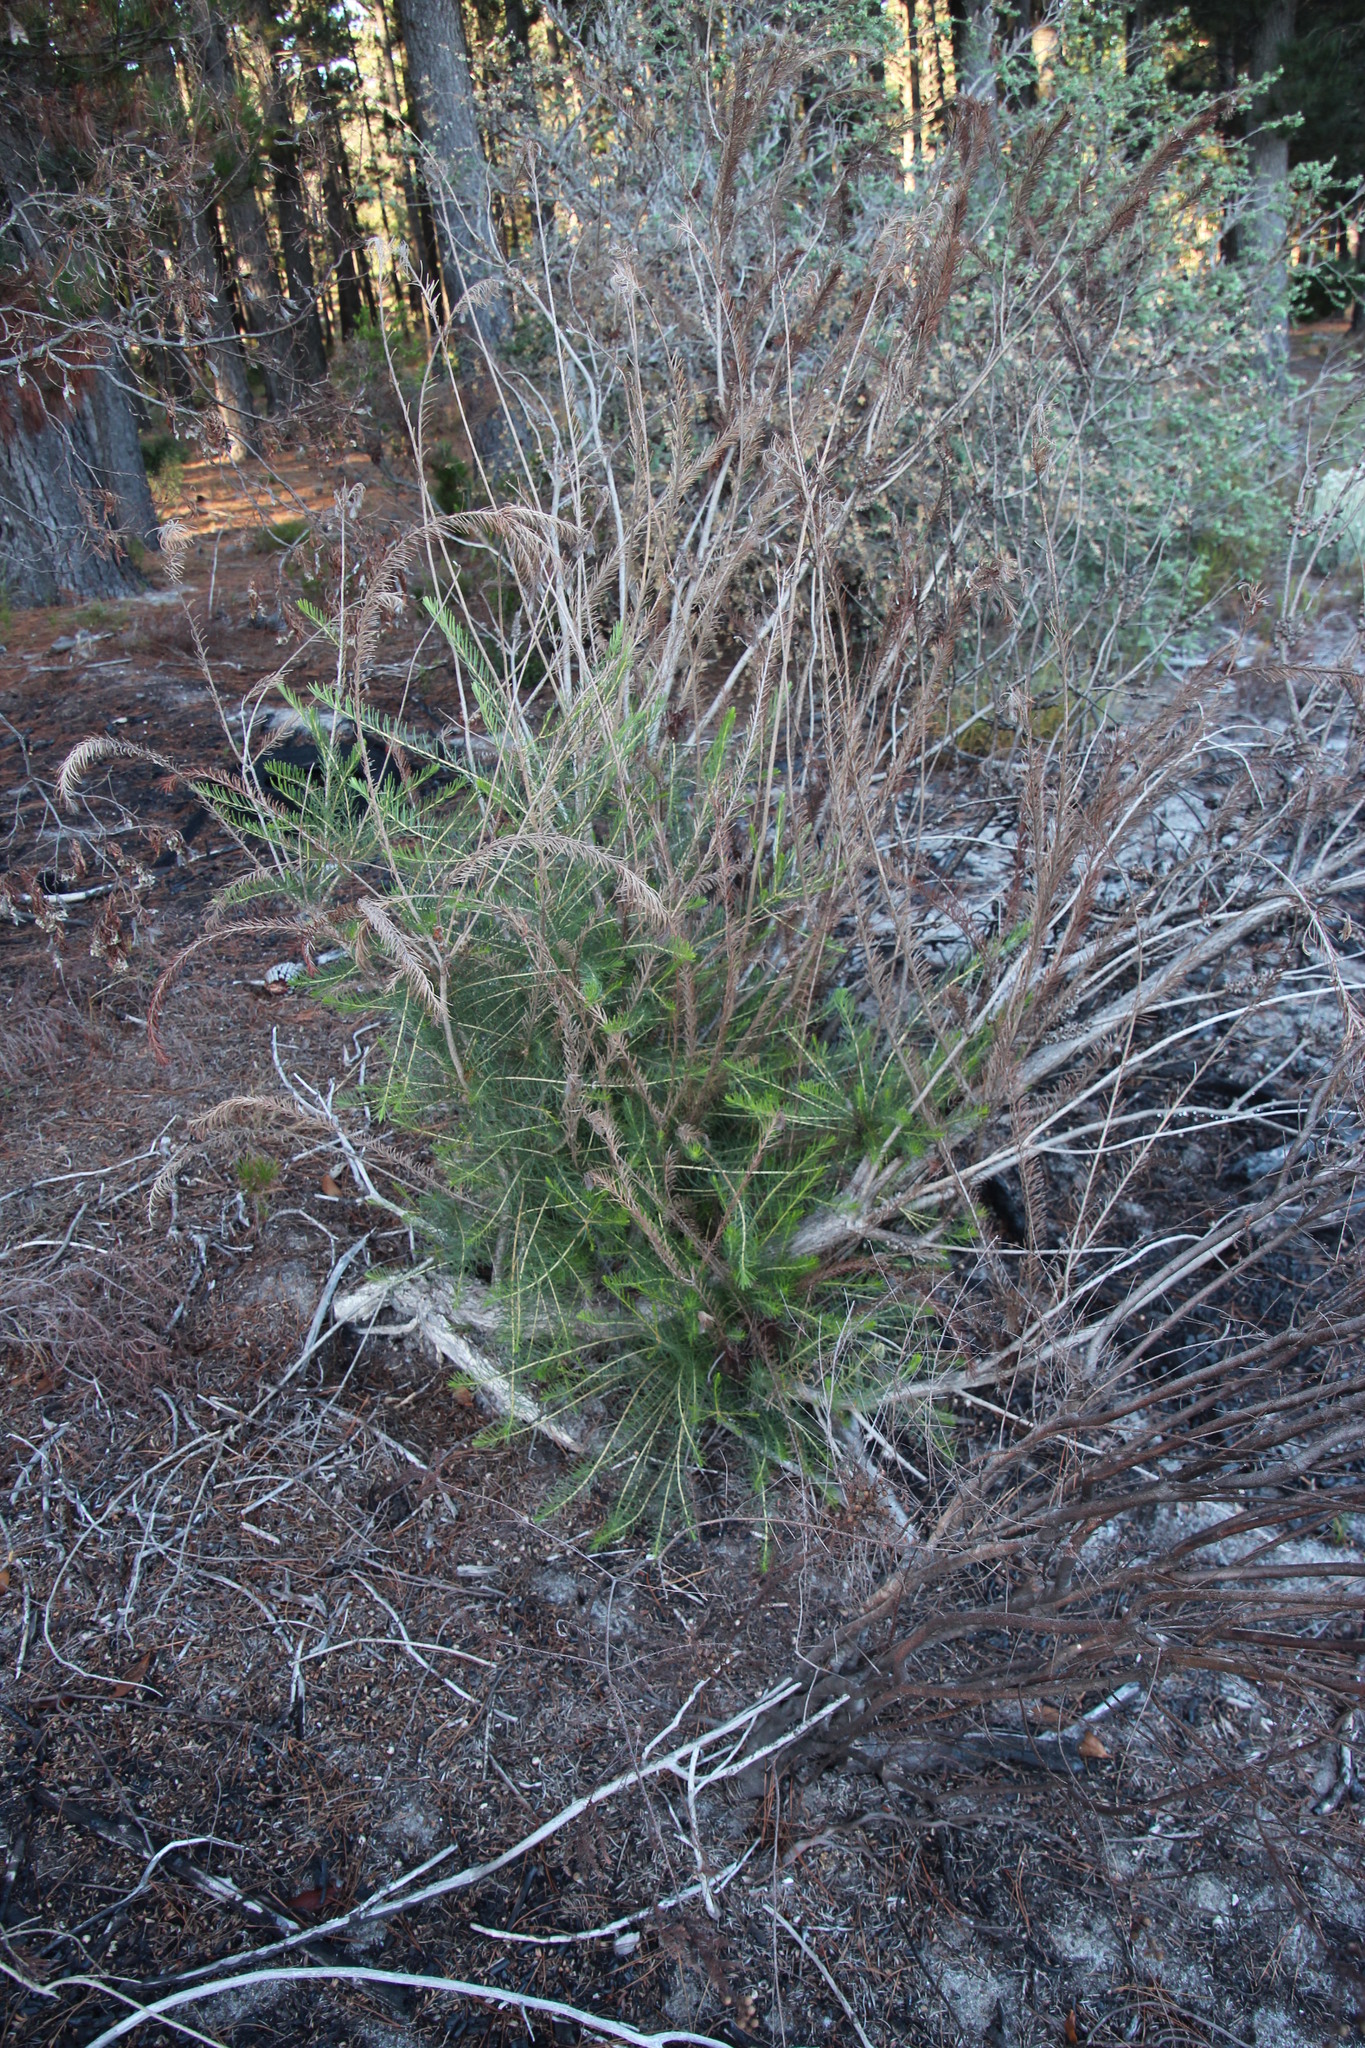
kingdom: Plantae
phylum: Tracheophyta
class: Magnoliopsida
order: Myrtales
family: Myrtaceae
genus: Melaleuca
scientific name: Melaleuca armillaris
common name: Bracelet honey myrtle
